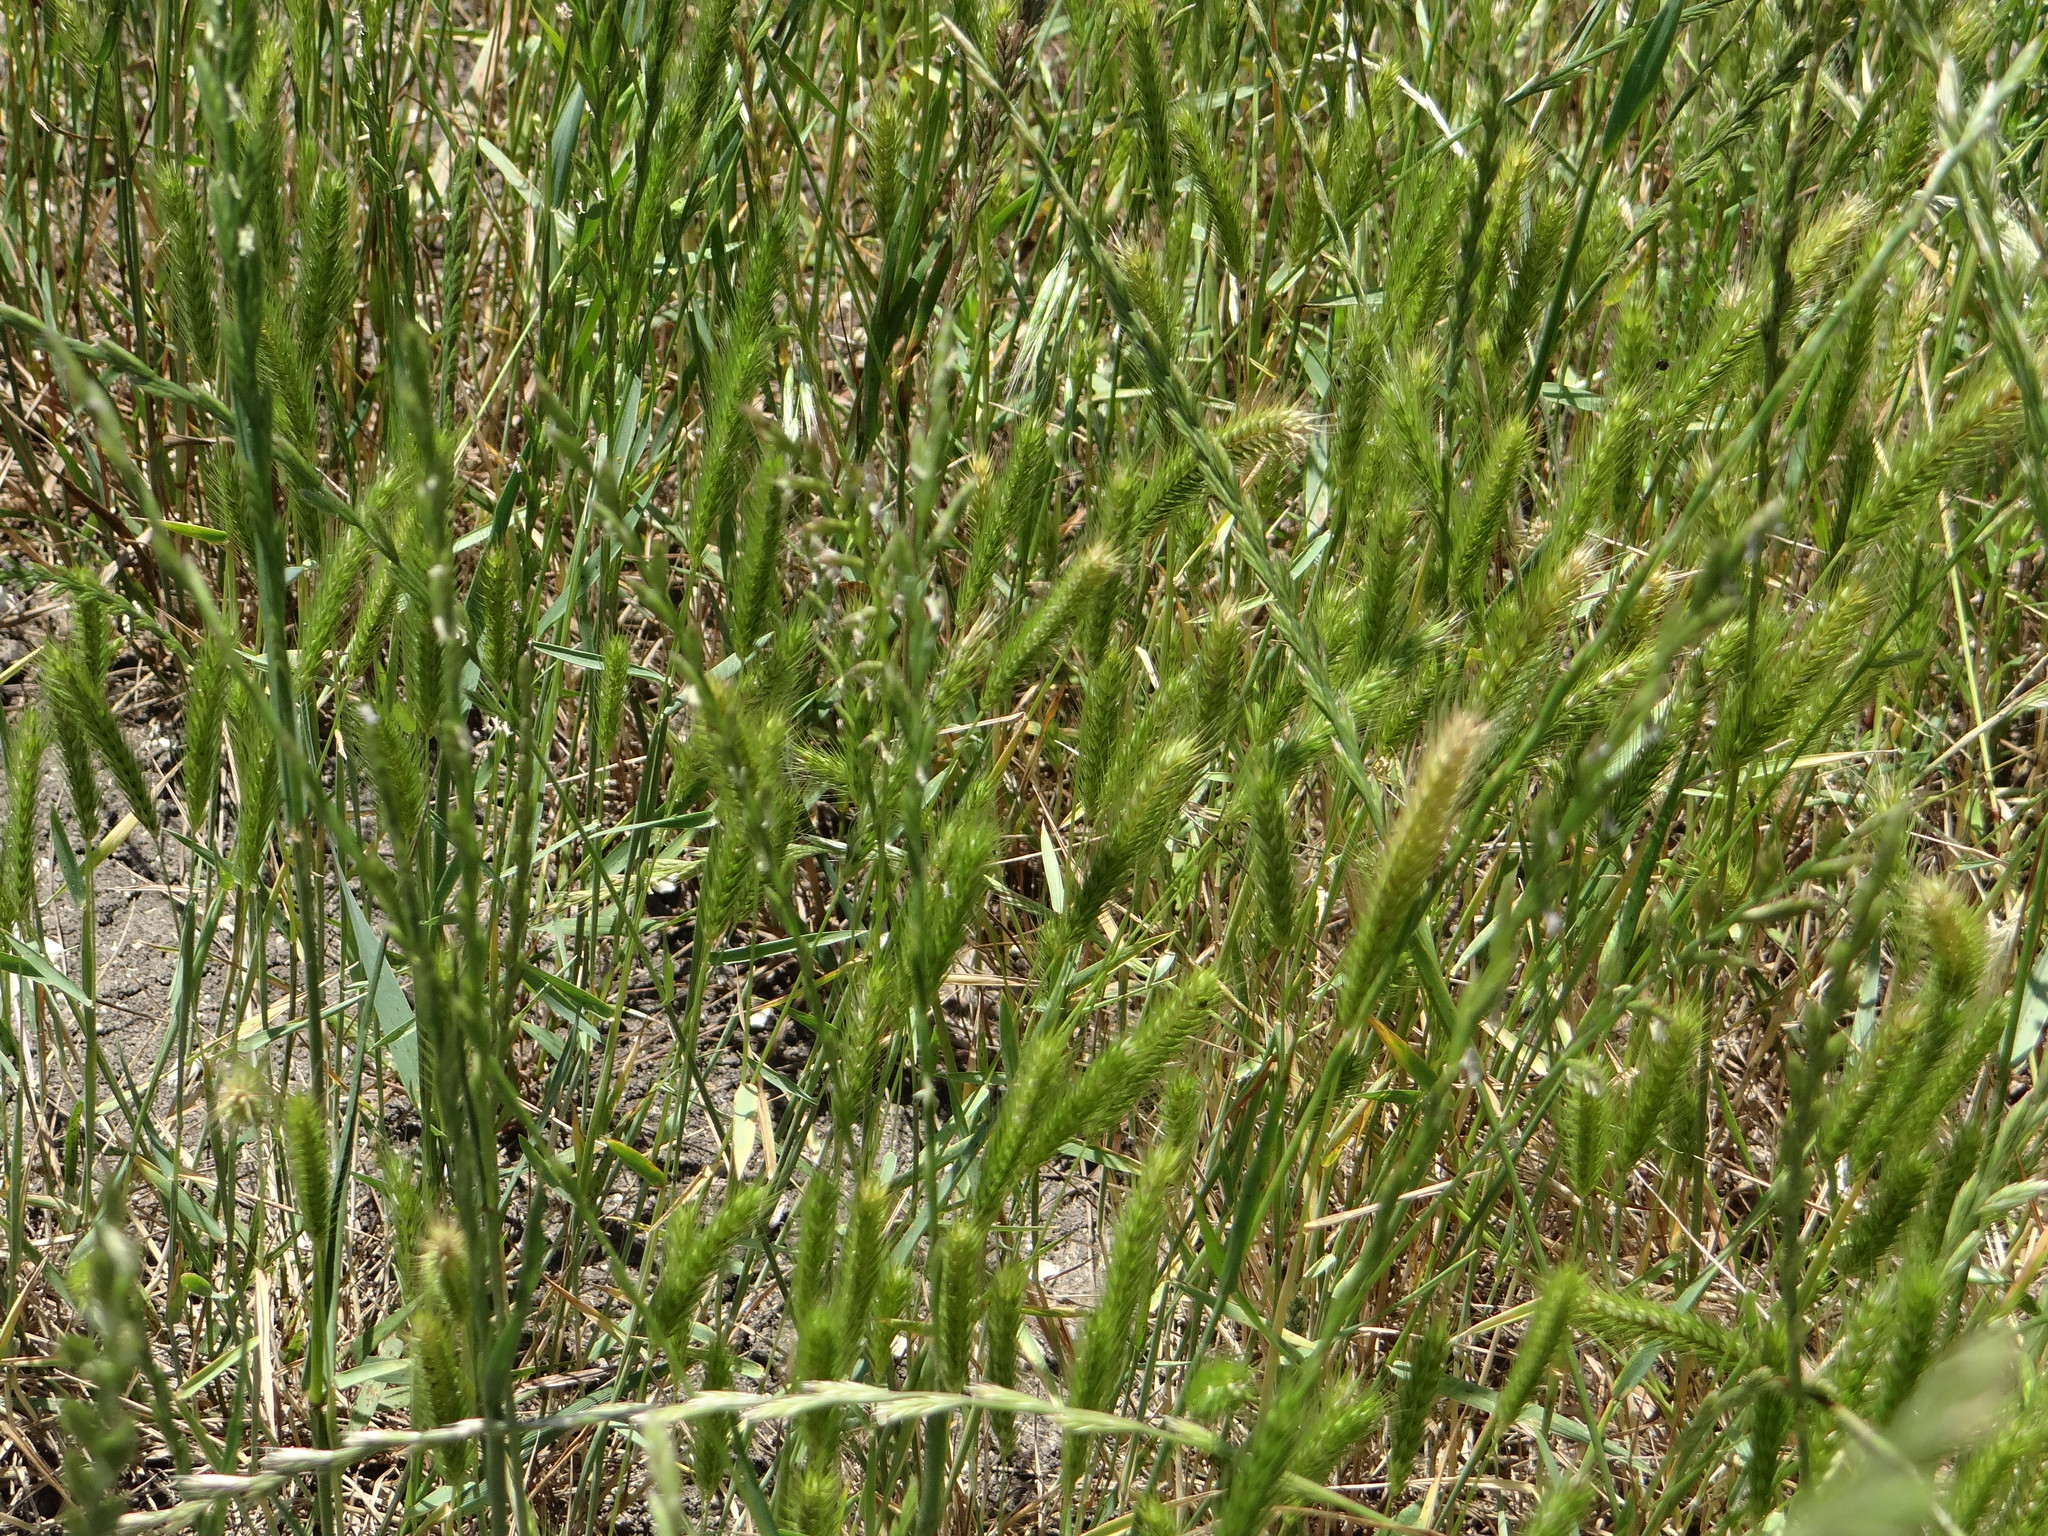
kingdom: Plantae
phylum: Tracheophyta
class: Liliopsida
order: Poales
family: Poaceae
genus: Hordeum
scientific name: Hordeum pusillum
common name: Little barley
